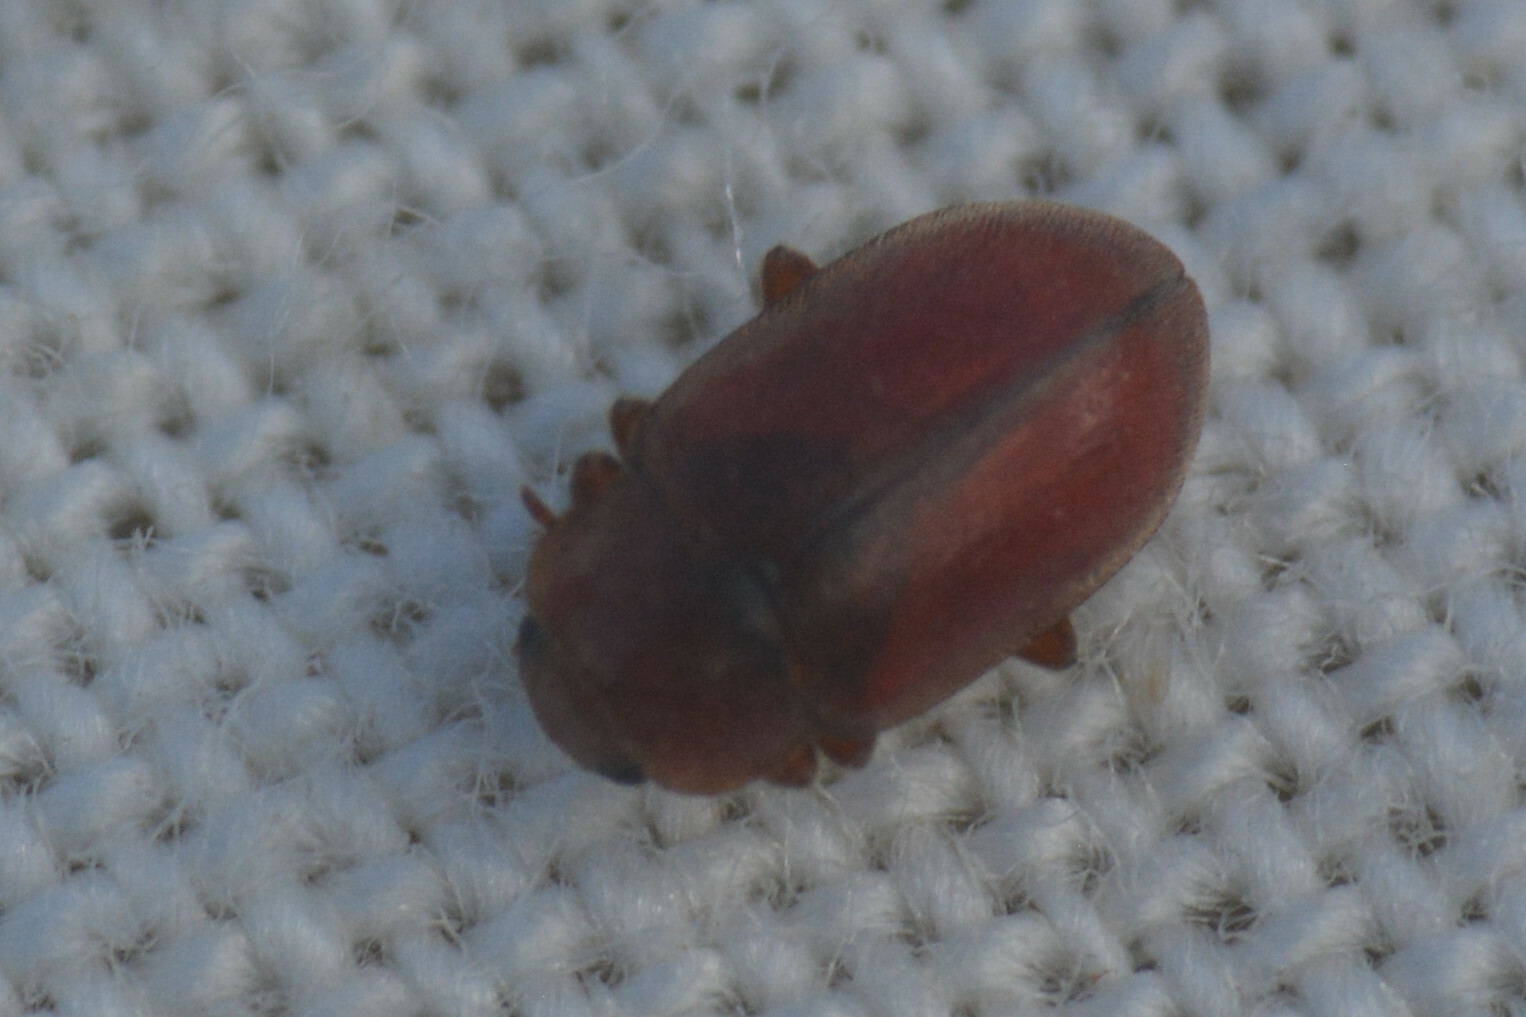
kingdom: Animalia
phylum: Arthropoda
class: Insecta
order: Coleoptera
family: Coccinellidae
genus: Coccidula
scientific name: Coccidula rufa
